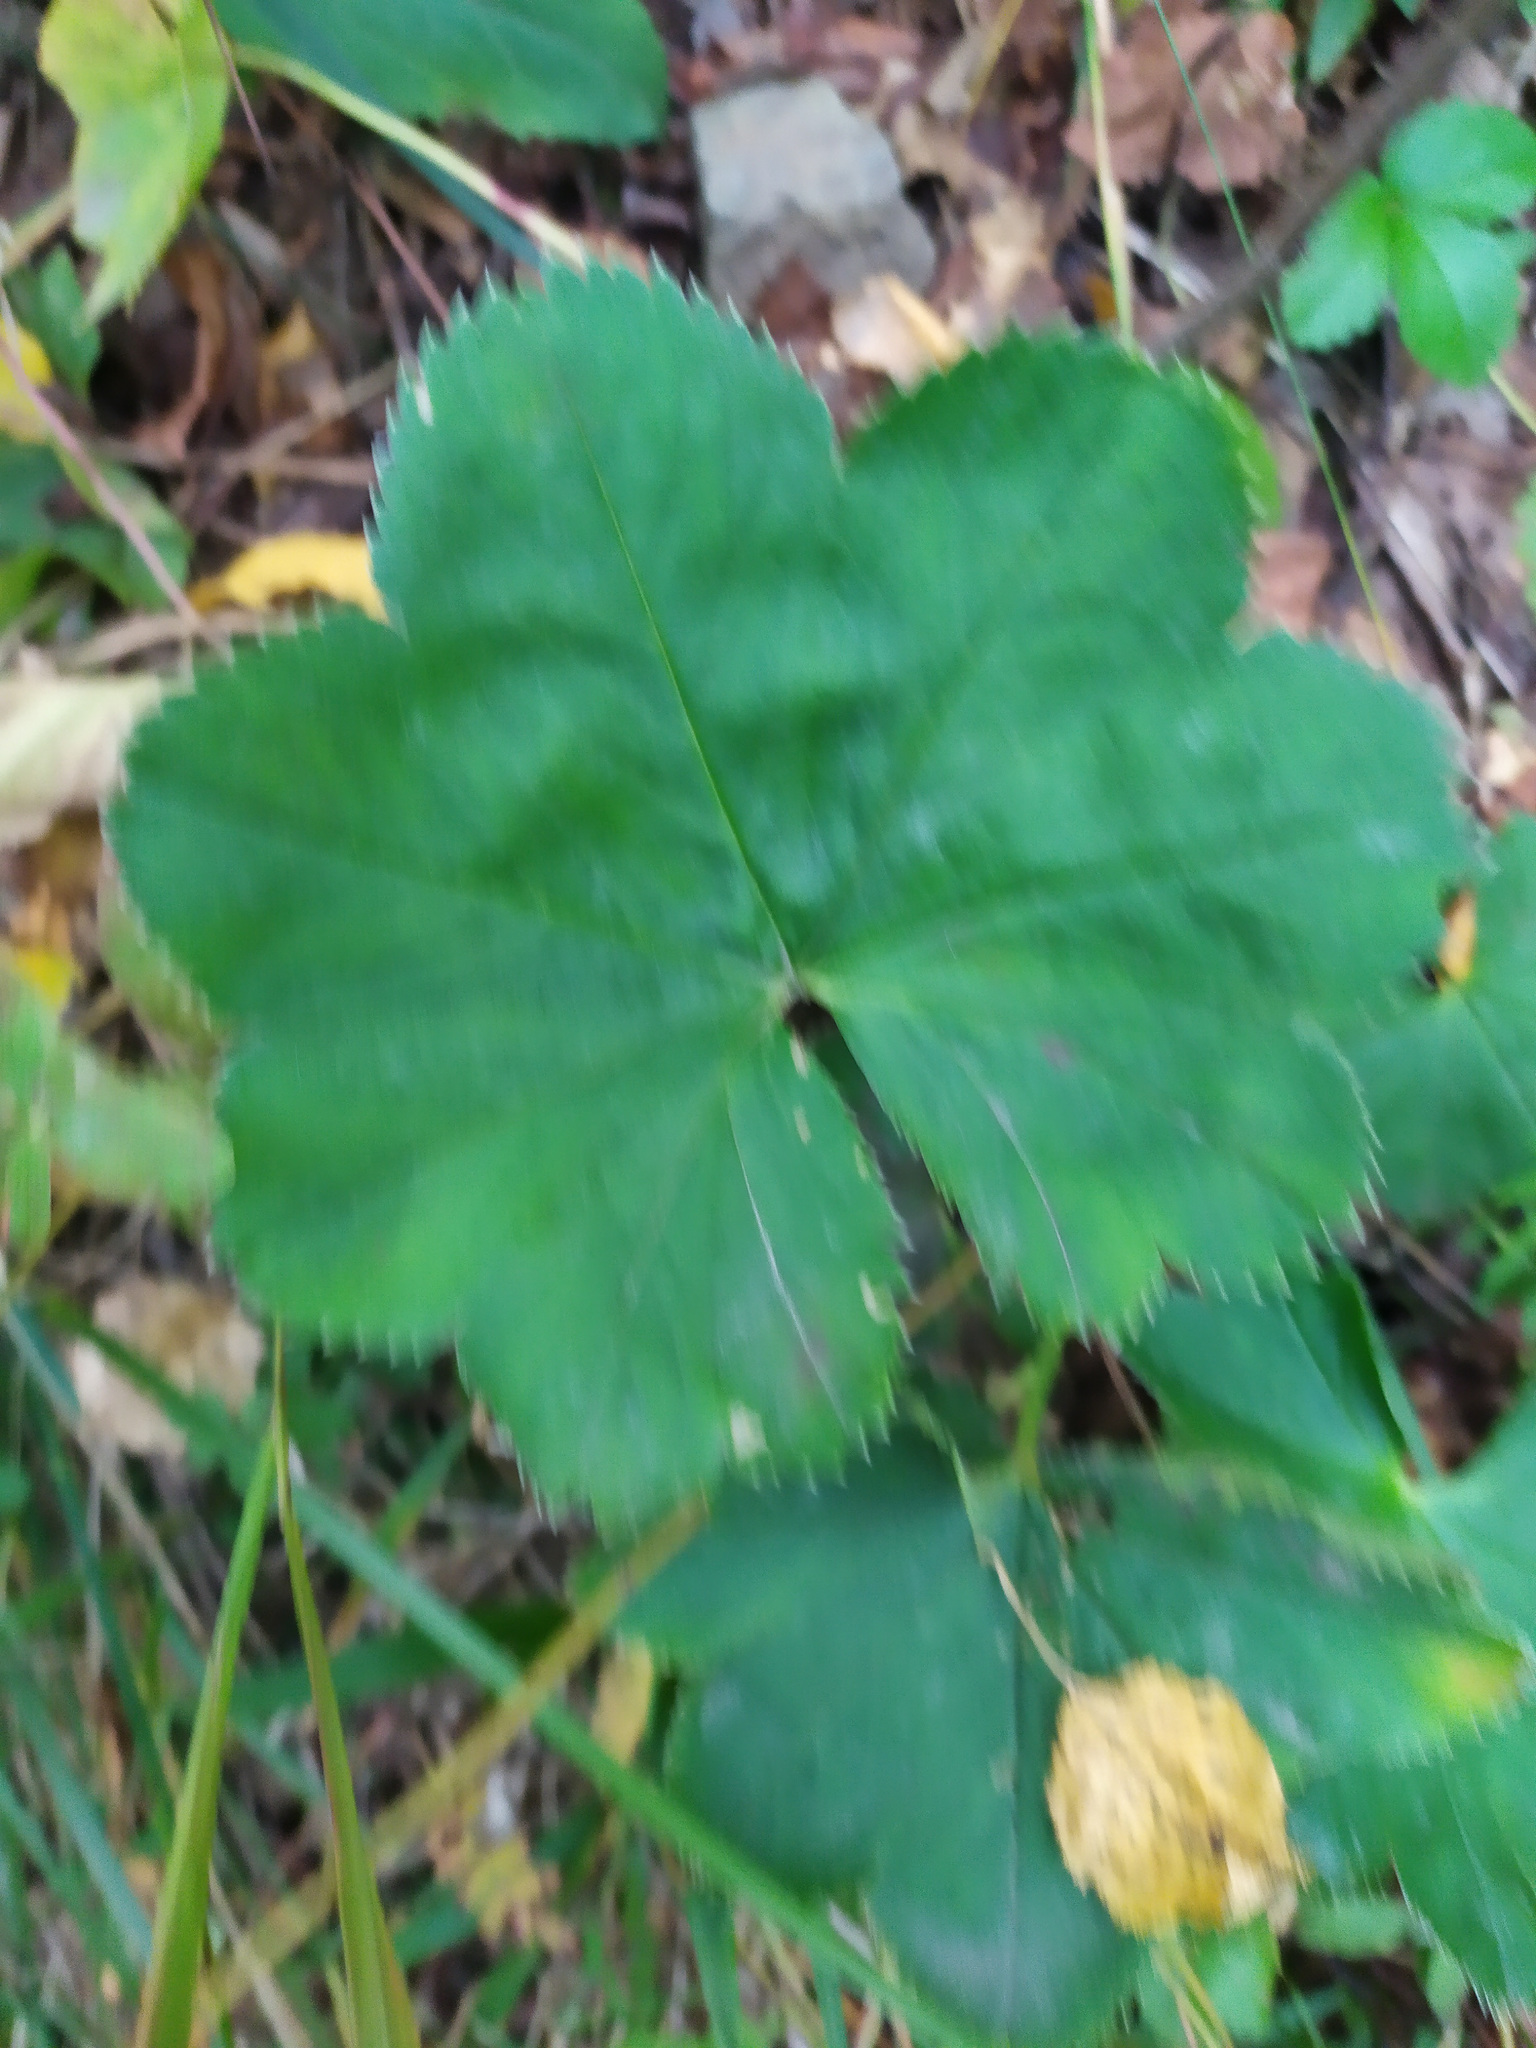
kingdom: Plantae
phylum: Tracheophyta
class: Magnoliopsida
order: Rosales
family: Rosaceae
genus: Alchemilla
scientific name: Alchemilla
